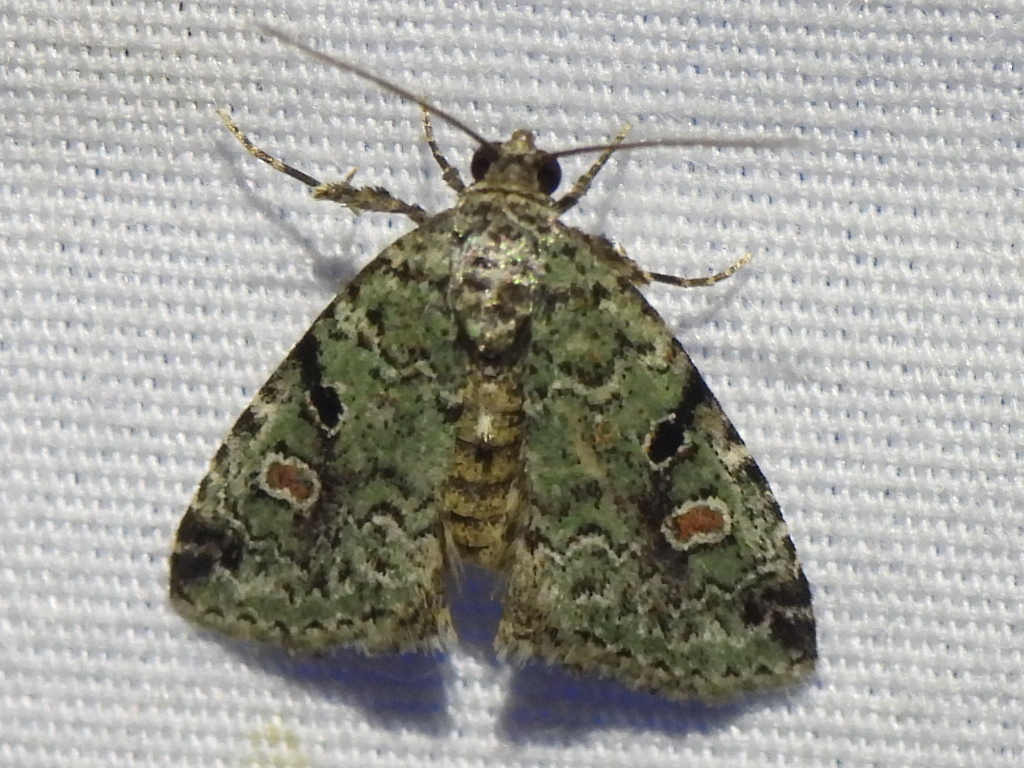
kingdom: Animalia
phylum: Arthropoda
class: Insecta
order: Lepidoptera
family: Noctuidae
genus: Maliattha
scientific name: Maliattha concinnimacula
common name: Red-spotted glyph
